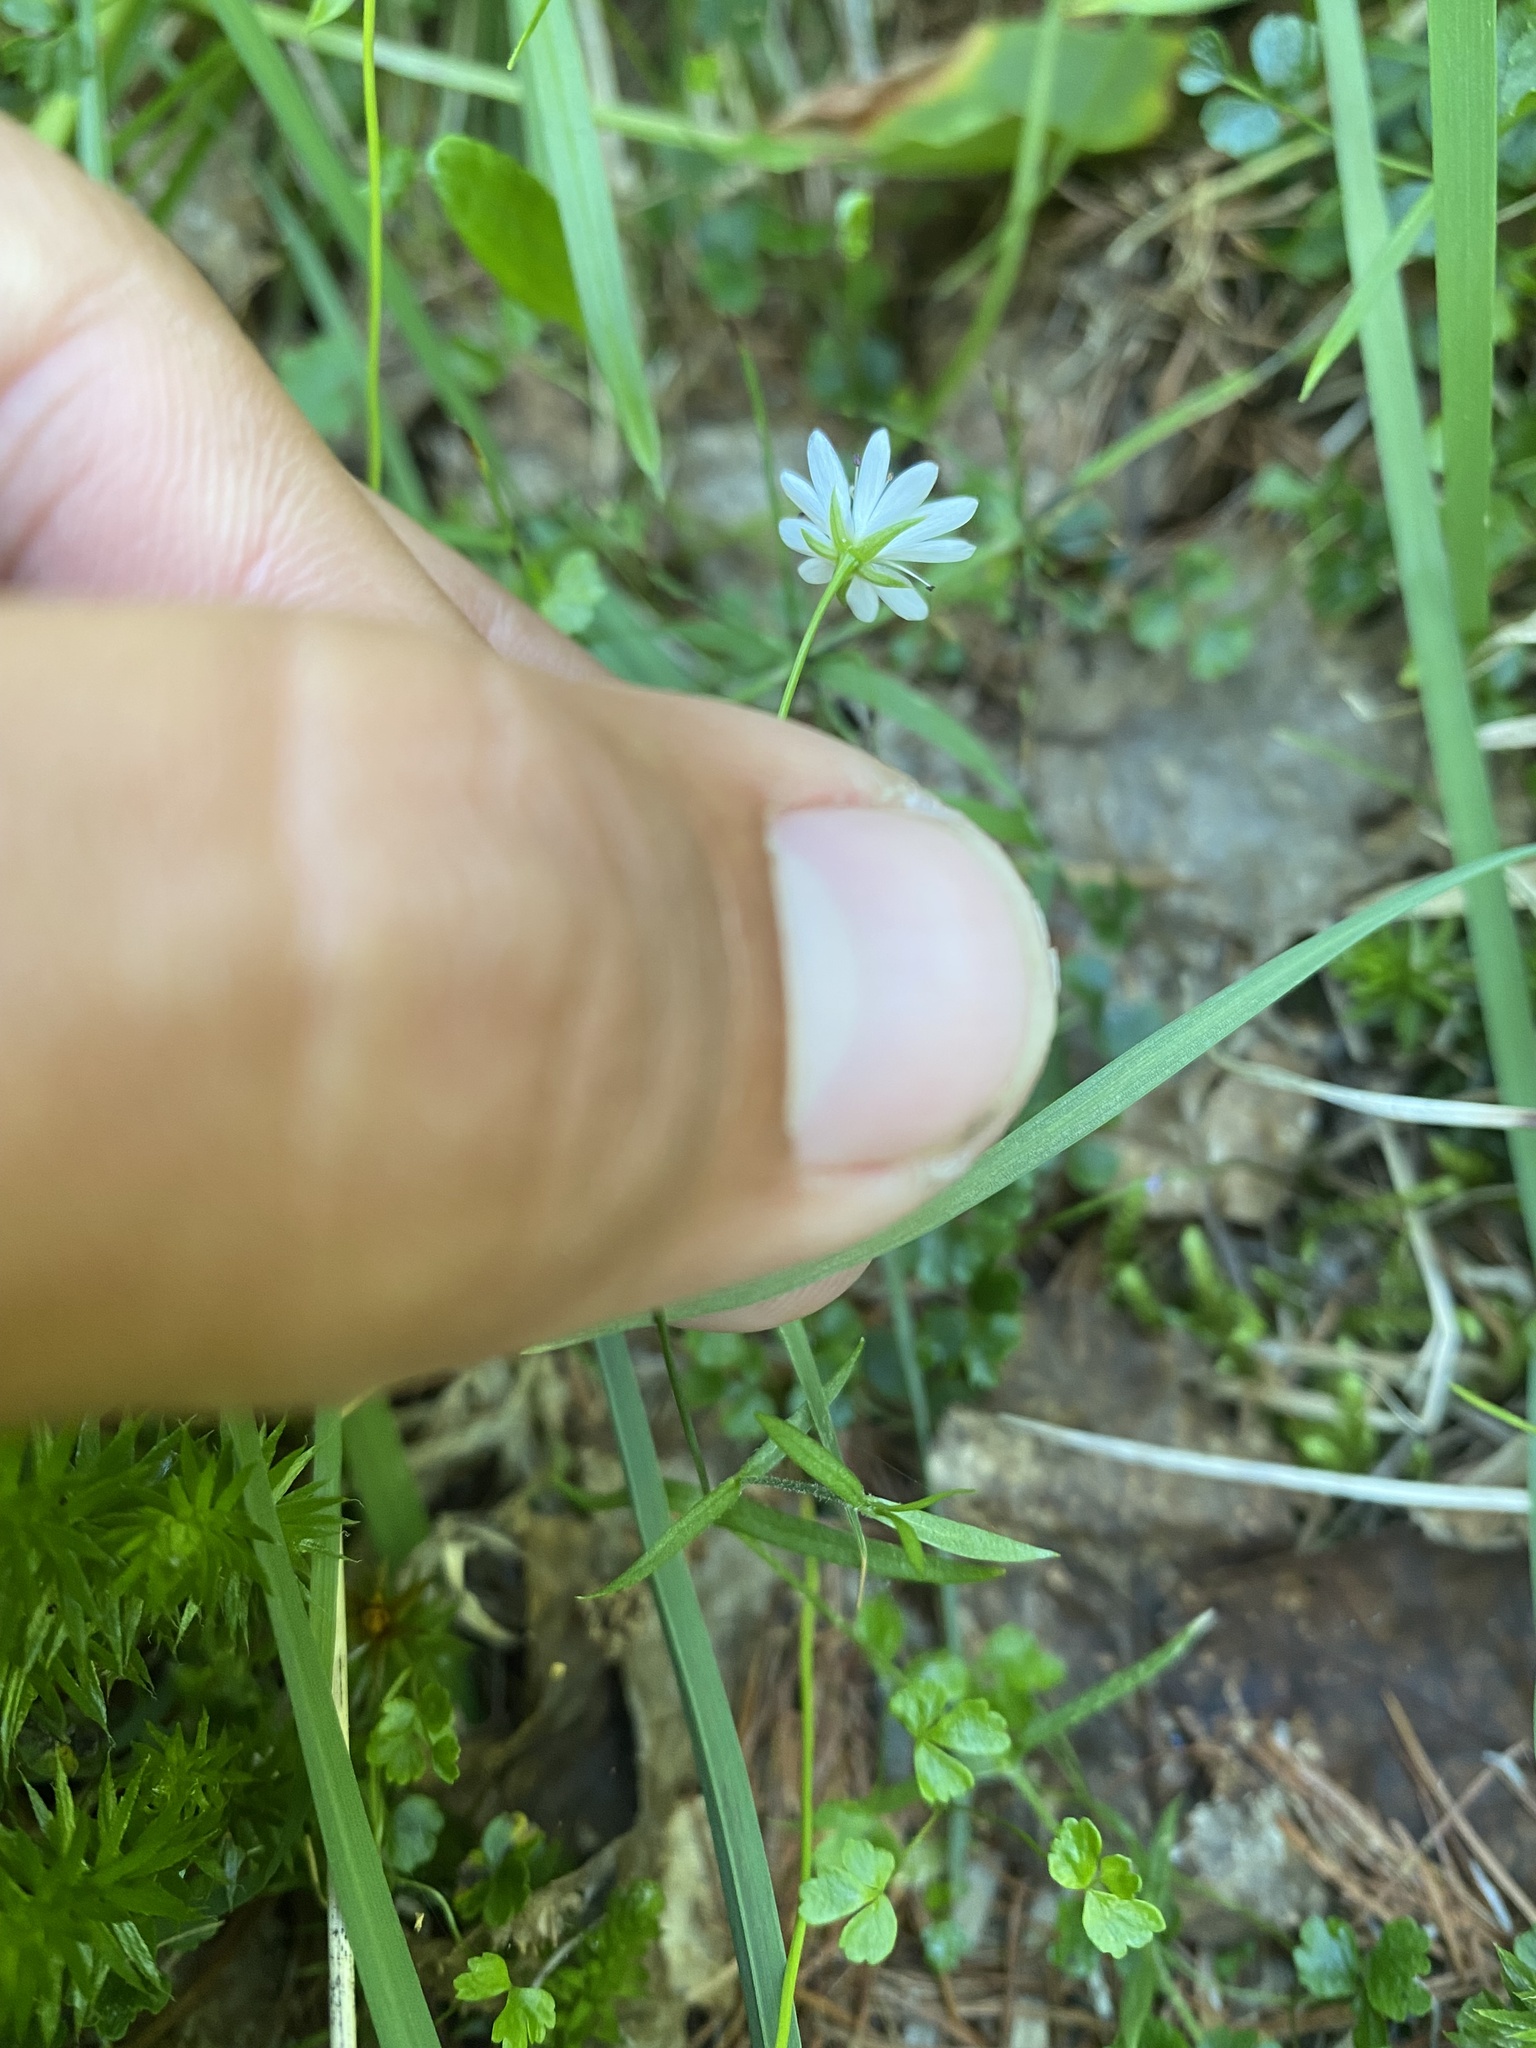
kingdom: Plantae
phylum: Tracheophyta
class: Magnoliopsida
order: Caryophyllales
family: Caryophyllaceae
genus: Stellaria
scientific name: Stellaria peduncularis
